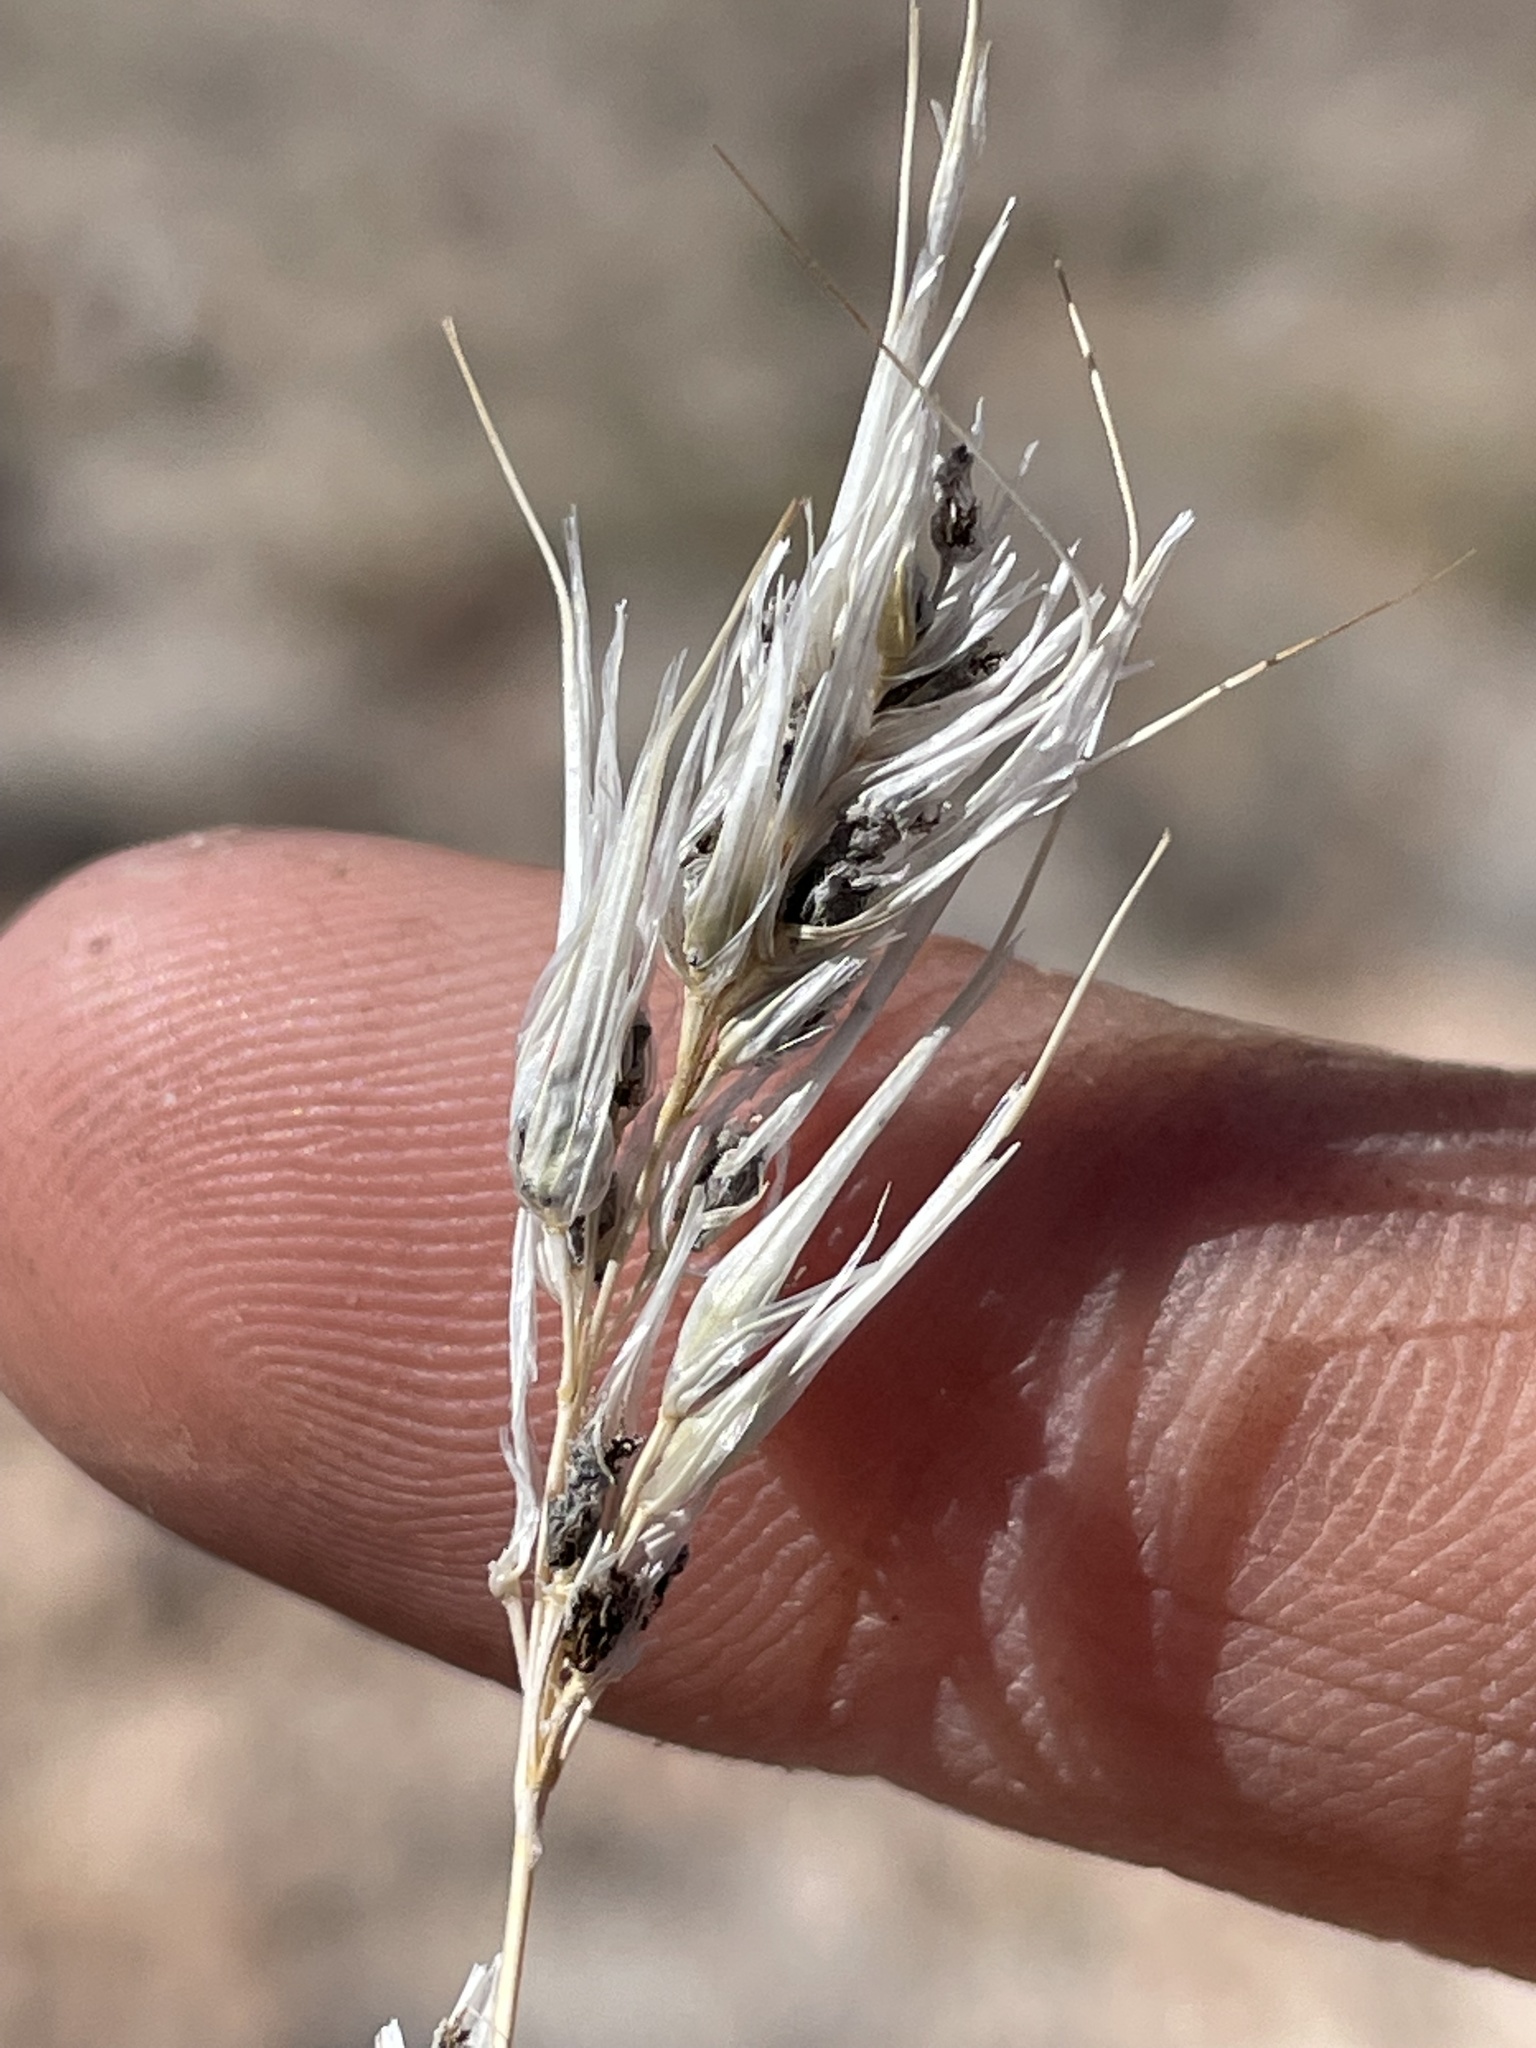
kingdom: Fungi
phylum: Basidiomycota
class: Ustilaginomycetes
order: Ustilaginales
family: Ustilaginaceae
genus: Ustilago
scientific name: Ustilago bullata
